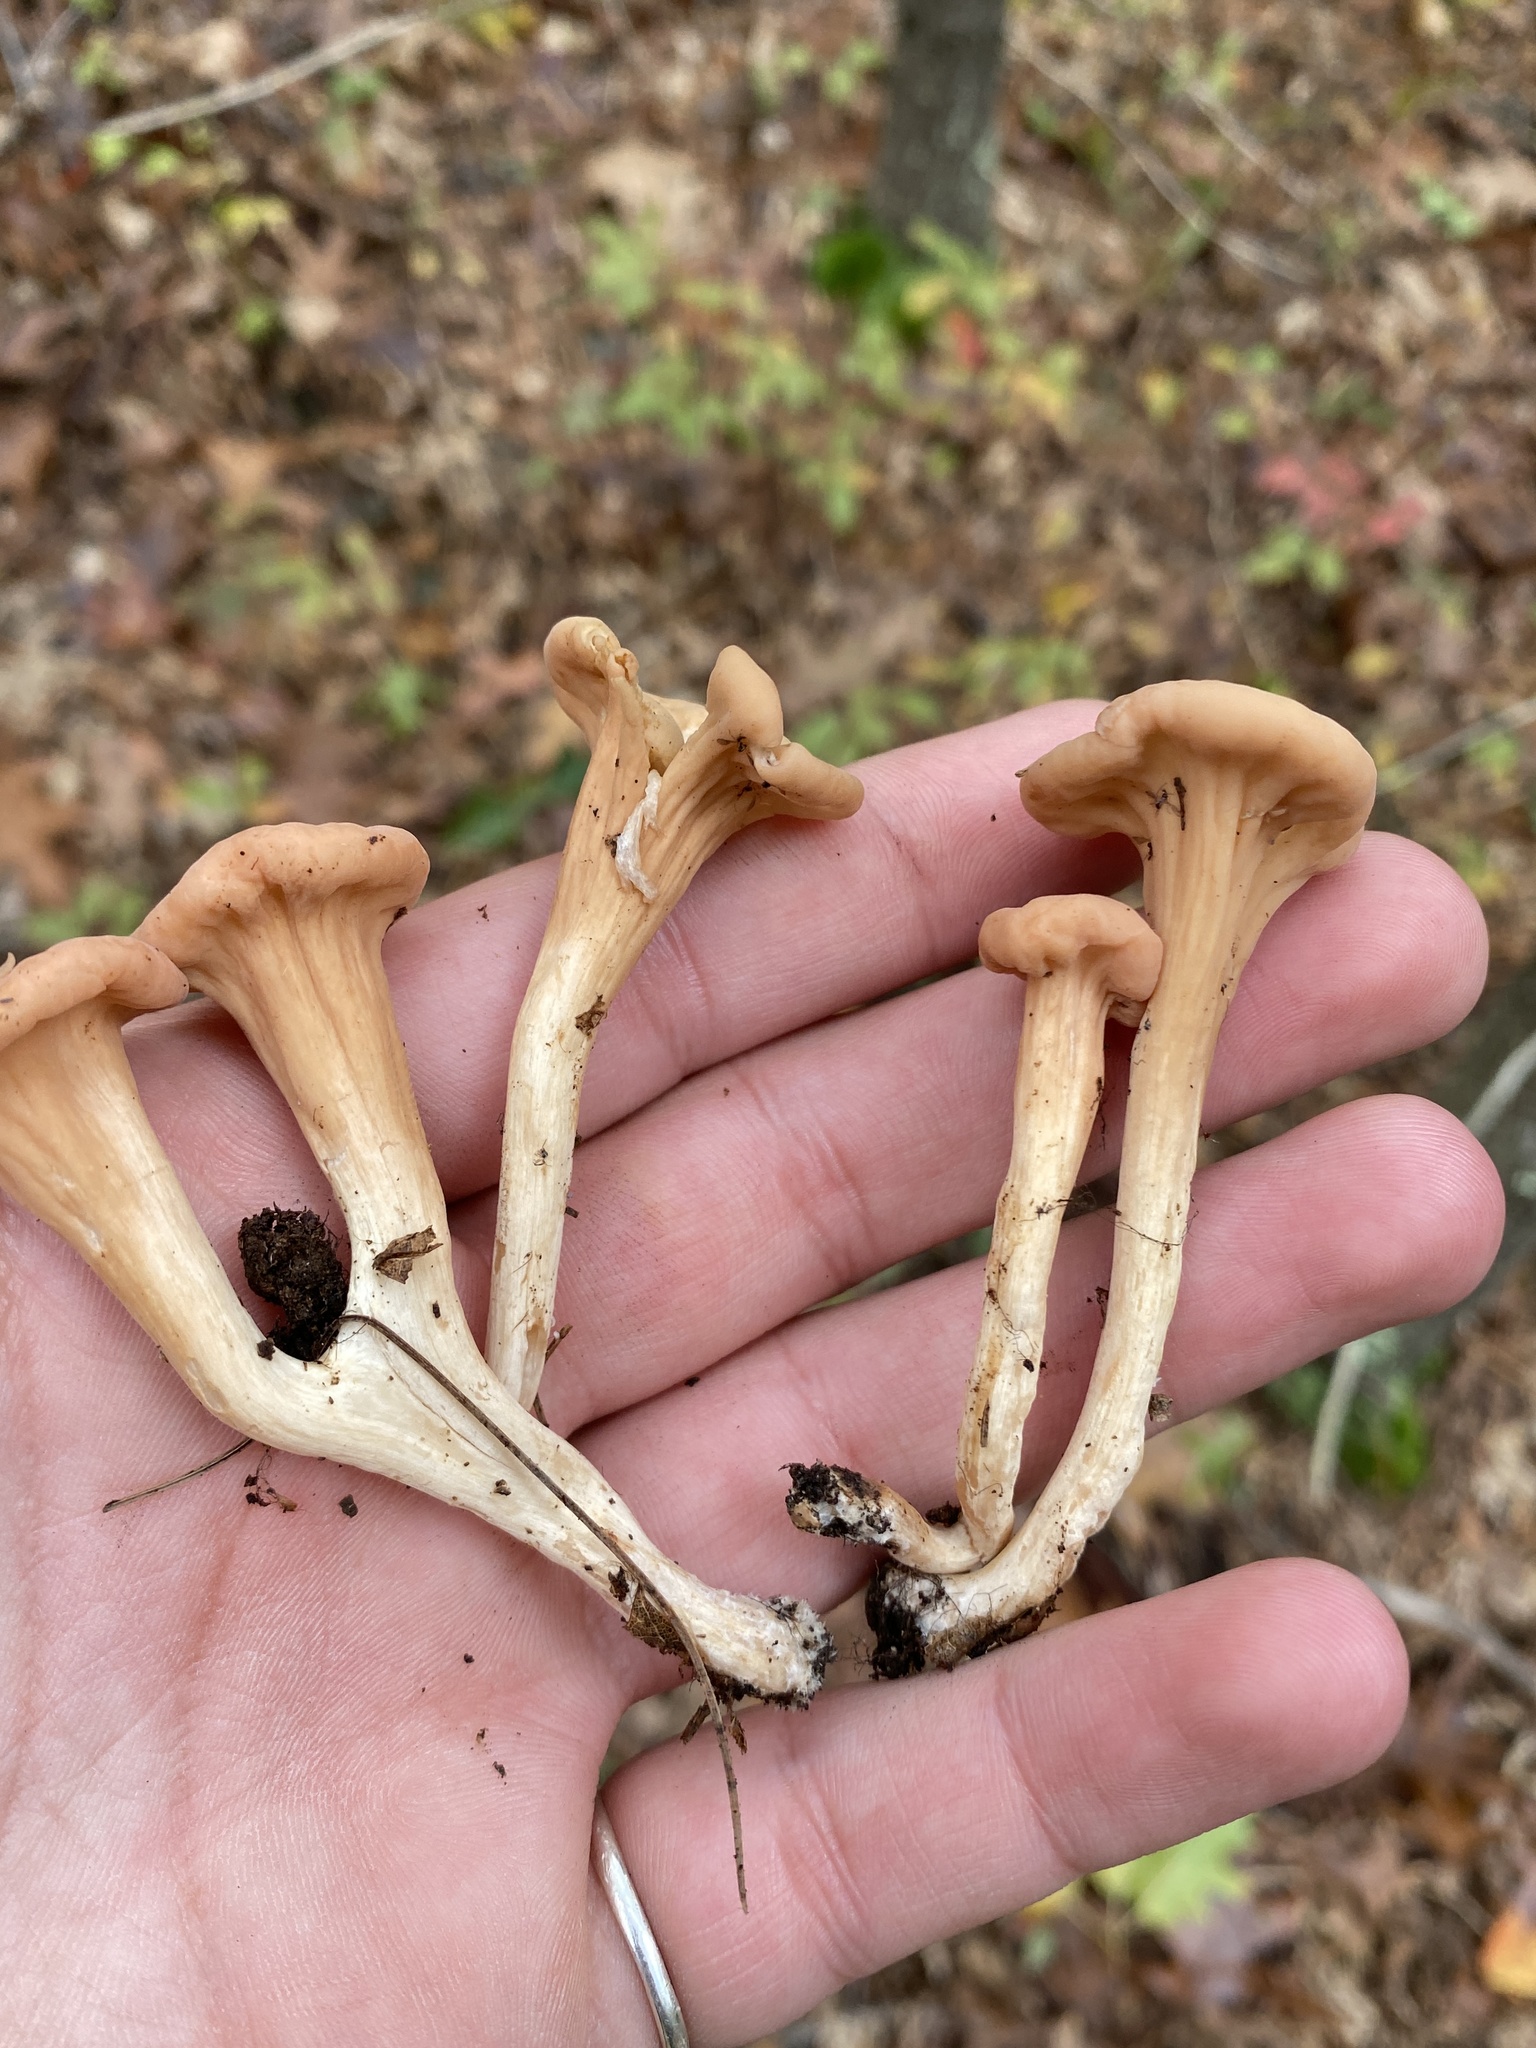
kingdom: Fungi
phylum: Basidiomycota
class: Agaricomycetes
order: Gomphales
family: Clavariadelphaceae
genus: Clavariadelphus
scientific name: Clavariadelphus truncatus
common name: Truncated club
